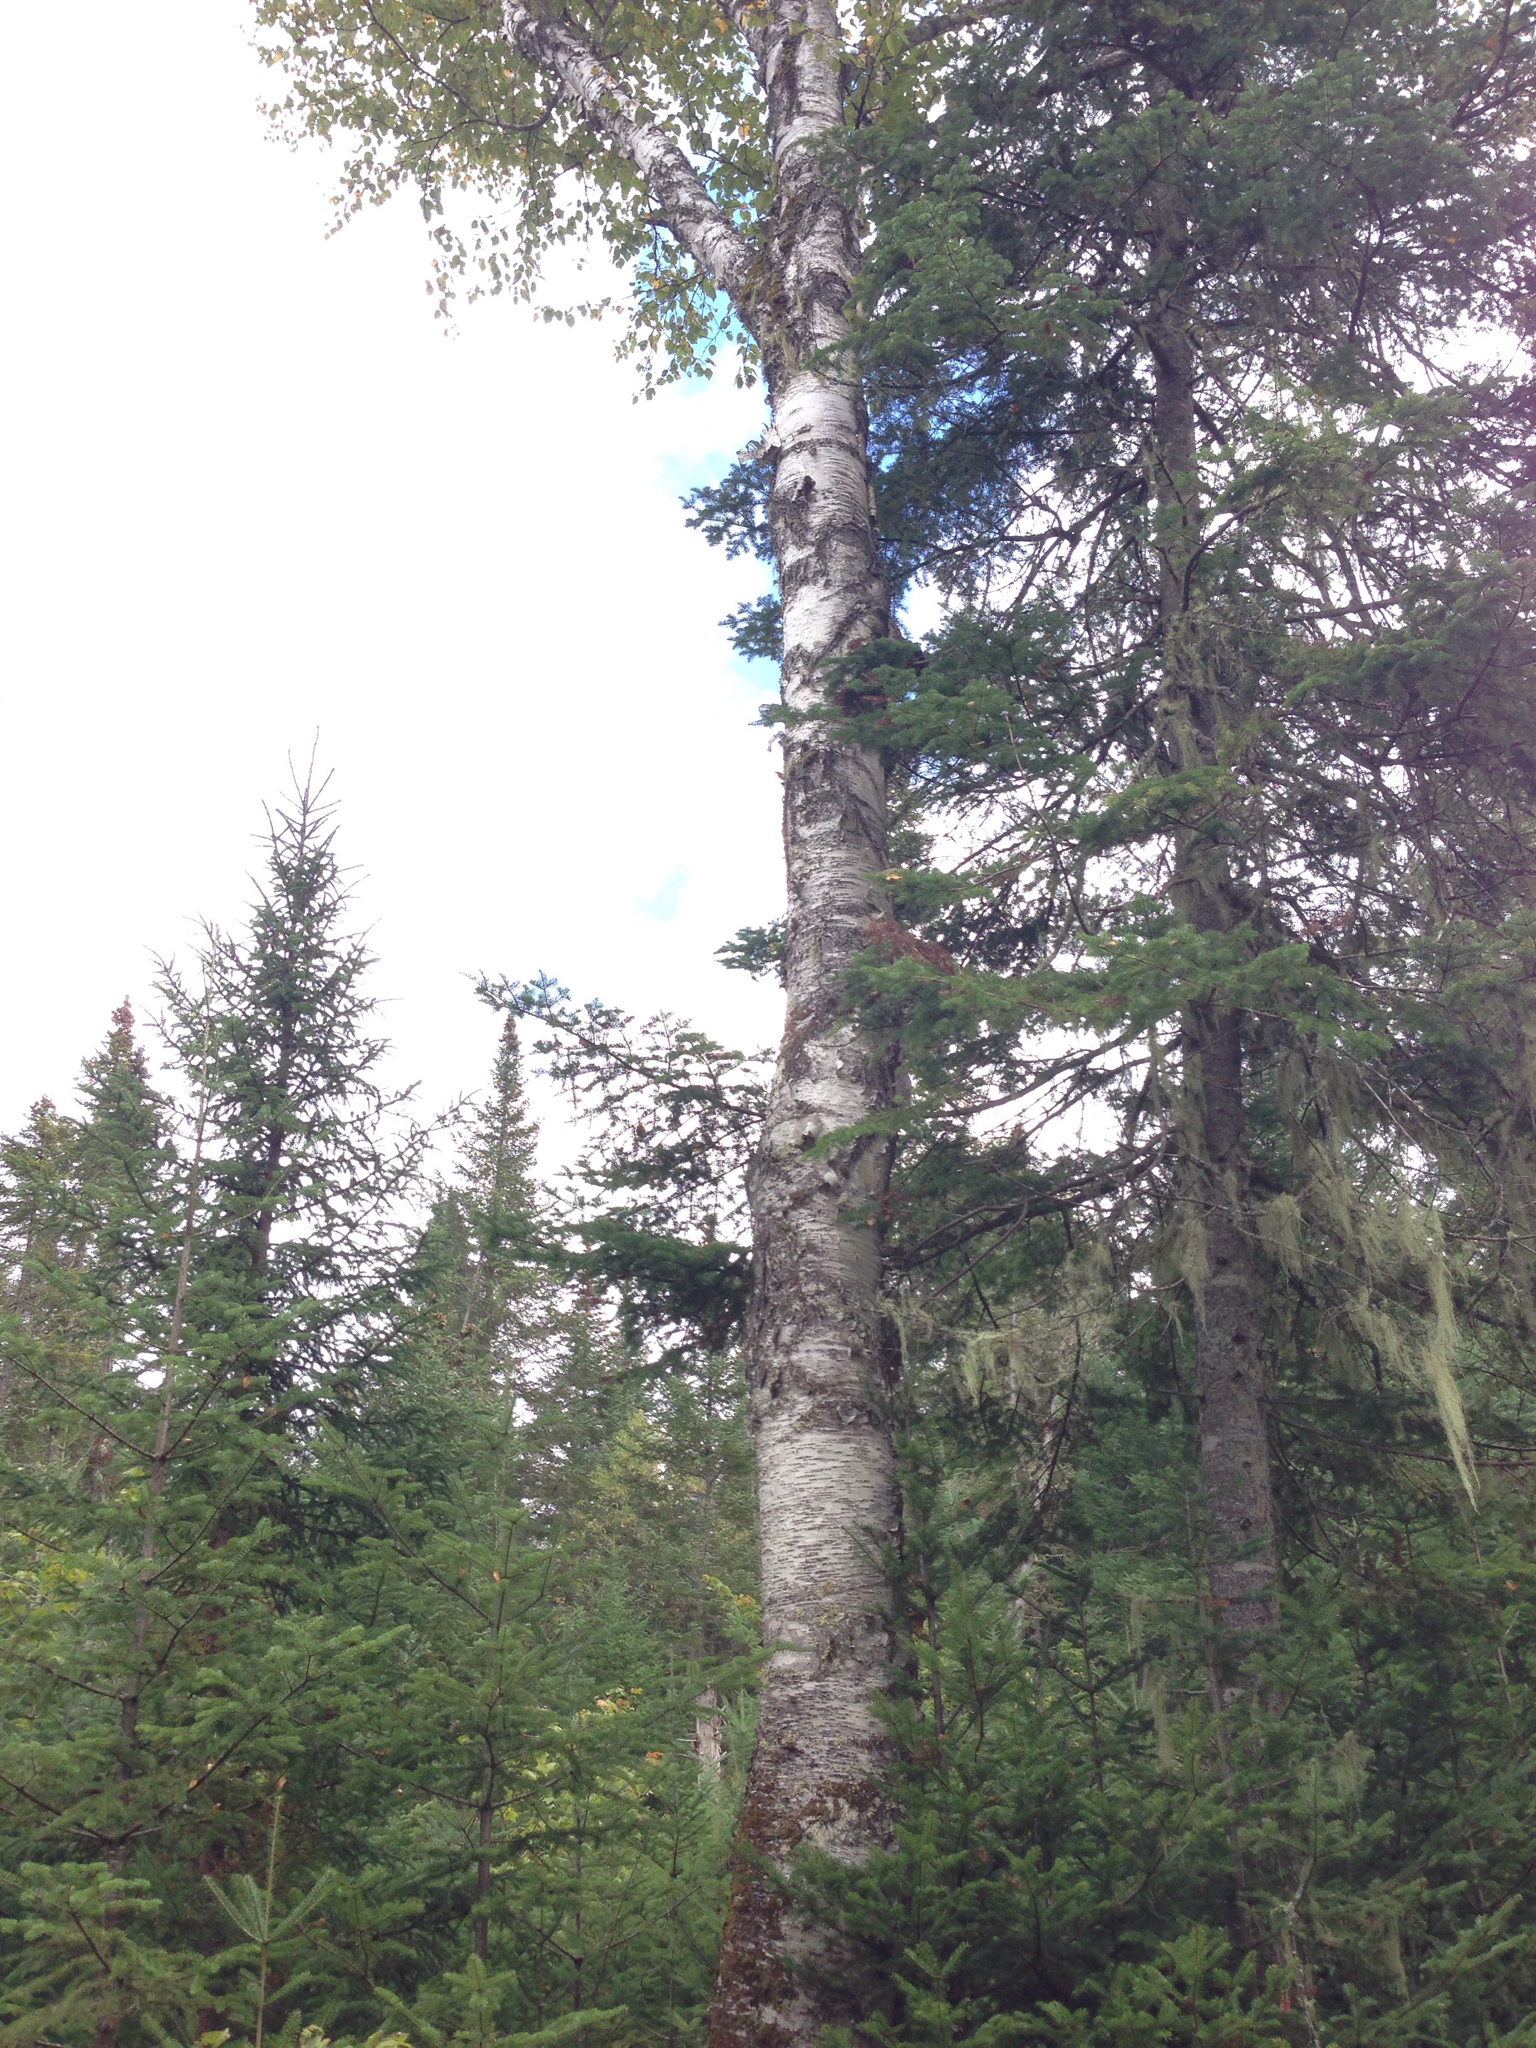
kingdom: Plantae
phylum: Tracheophyta
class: Magnoliopsida
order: Fagales
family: Betulaceae
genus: Betula
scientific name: Betula papyrifera
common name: Paper birch
